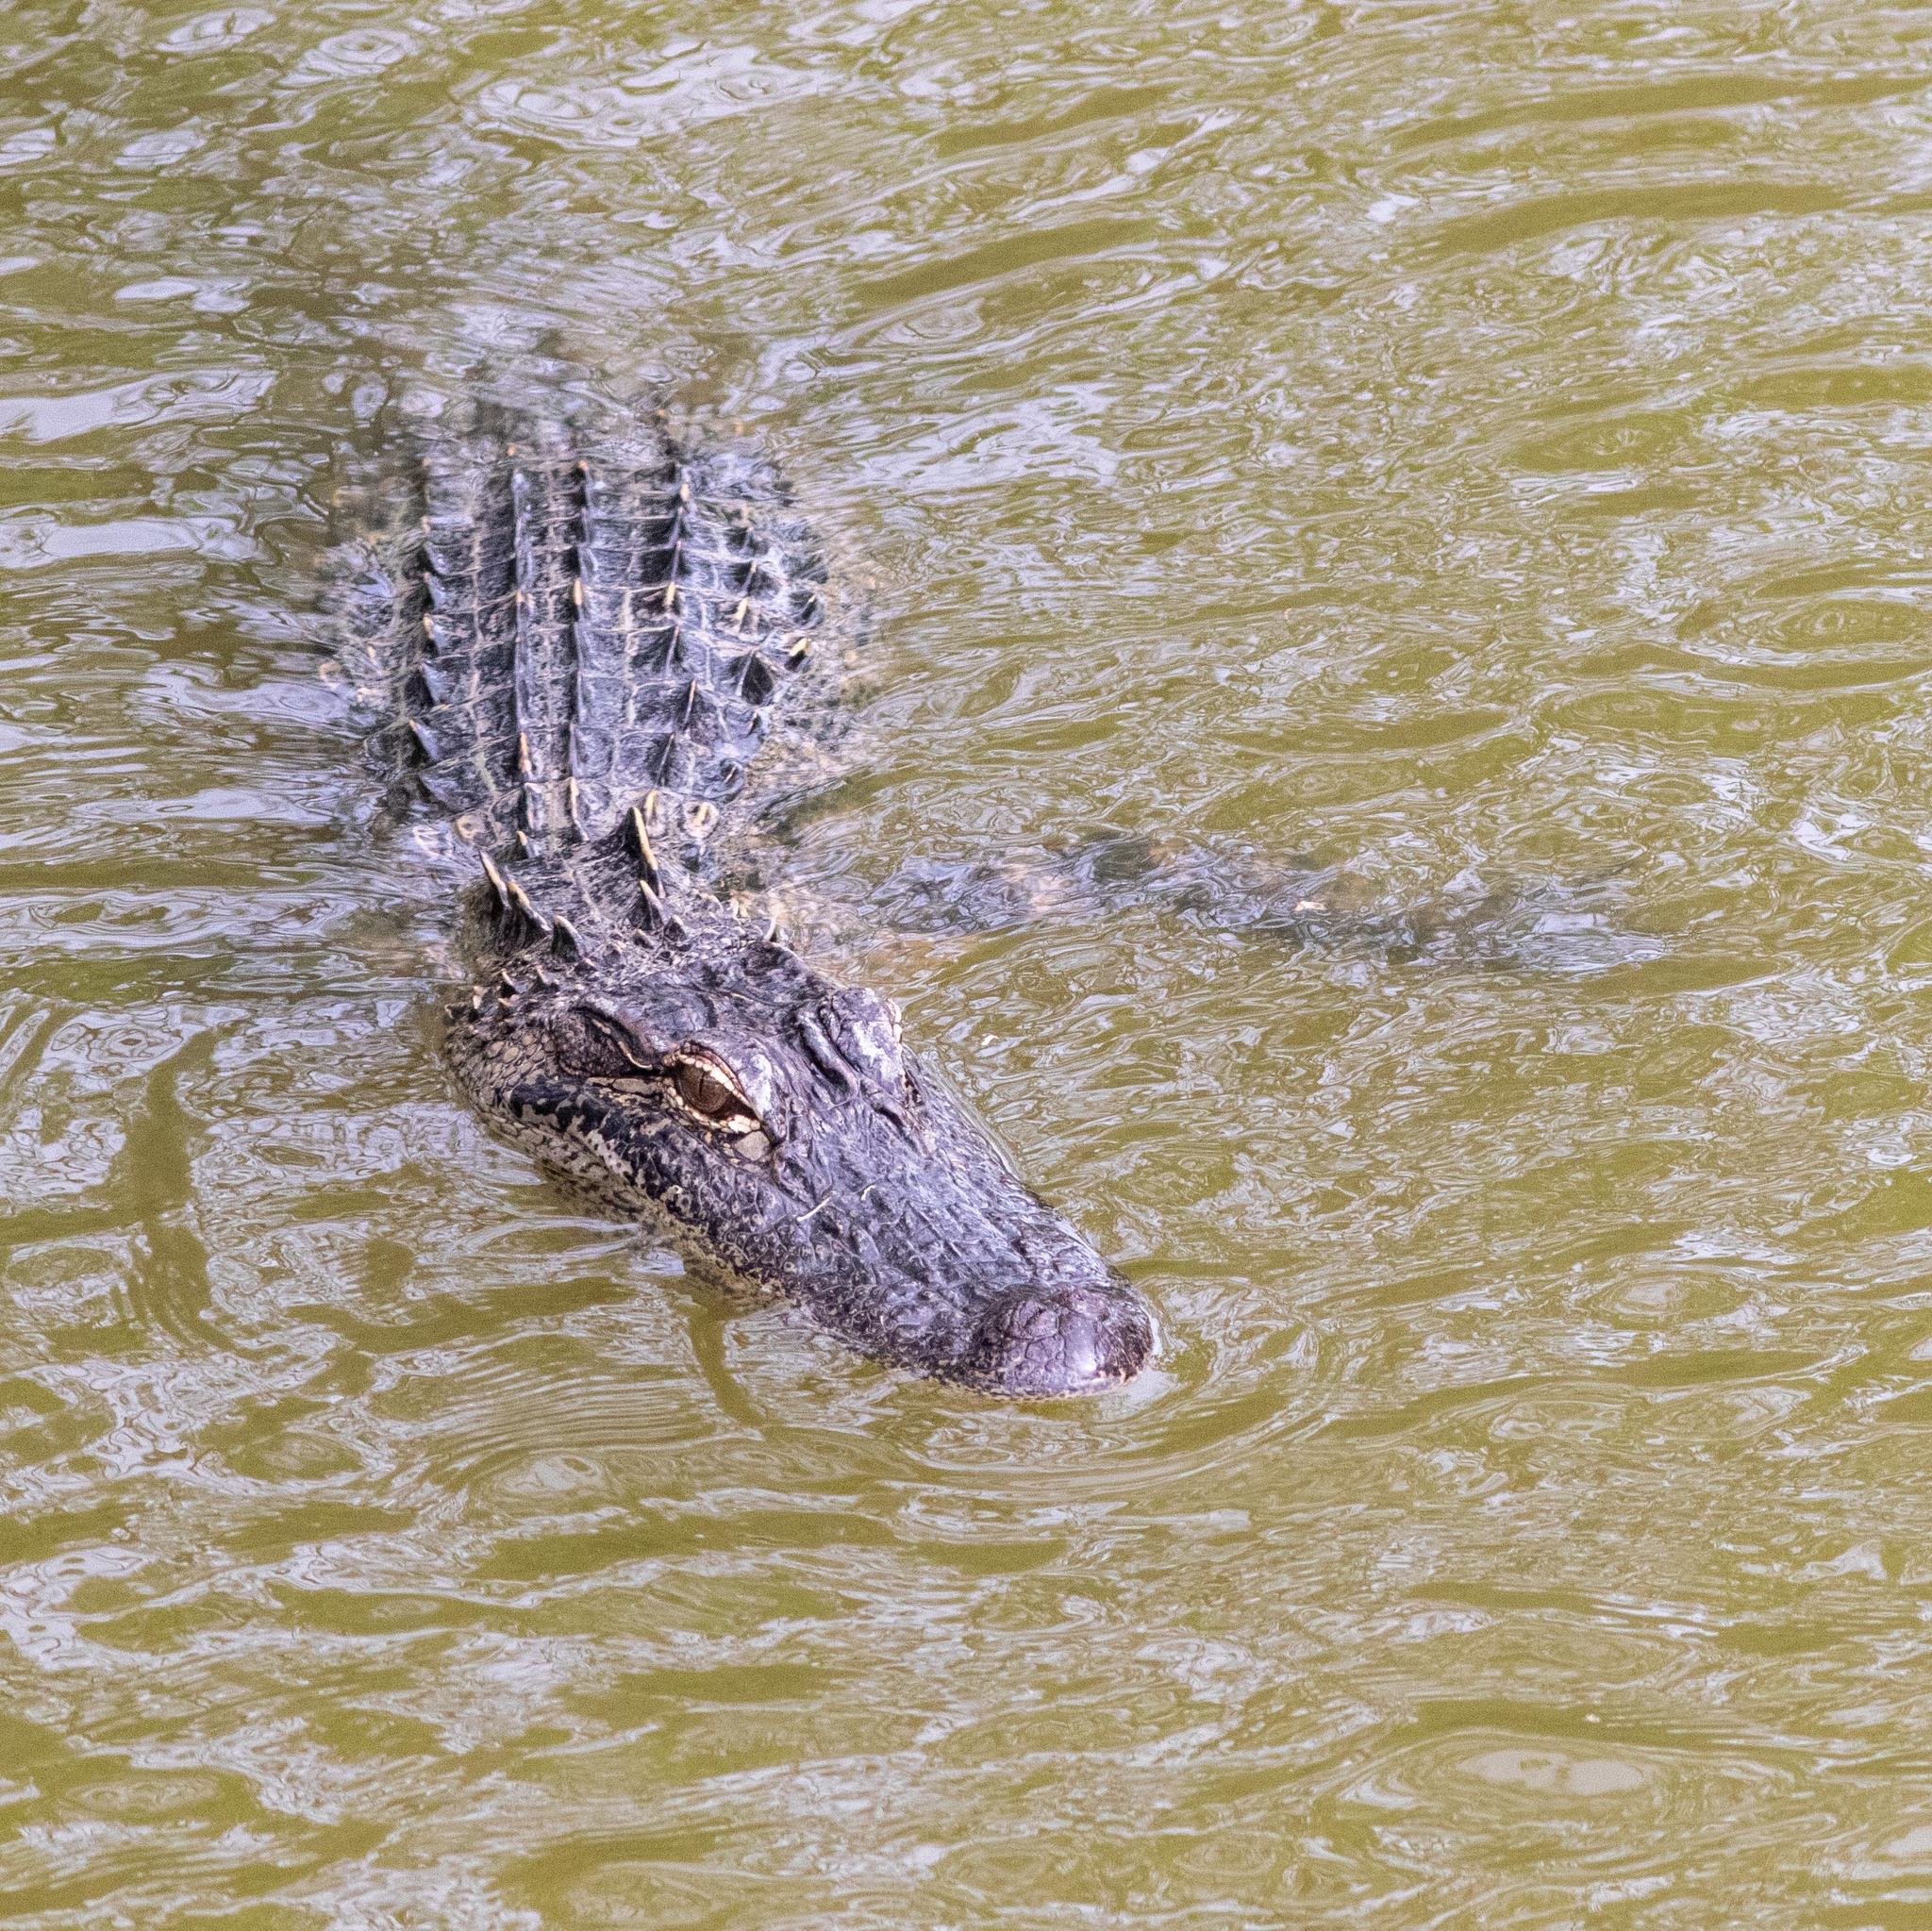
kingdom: Animalia
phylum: Chordata
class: Crocodylia
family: Alligatoridae
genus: Alligator
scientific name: Alligator mississippiensis
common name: American alligator
